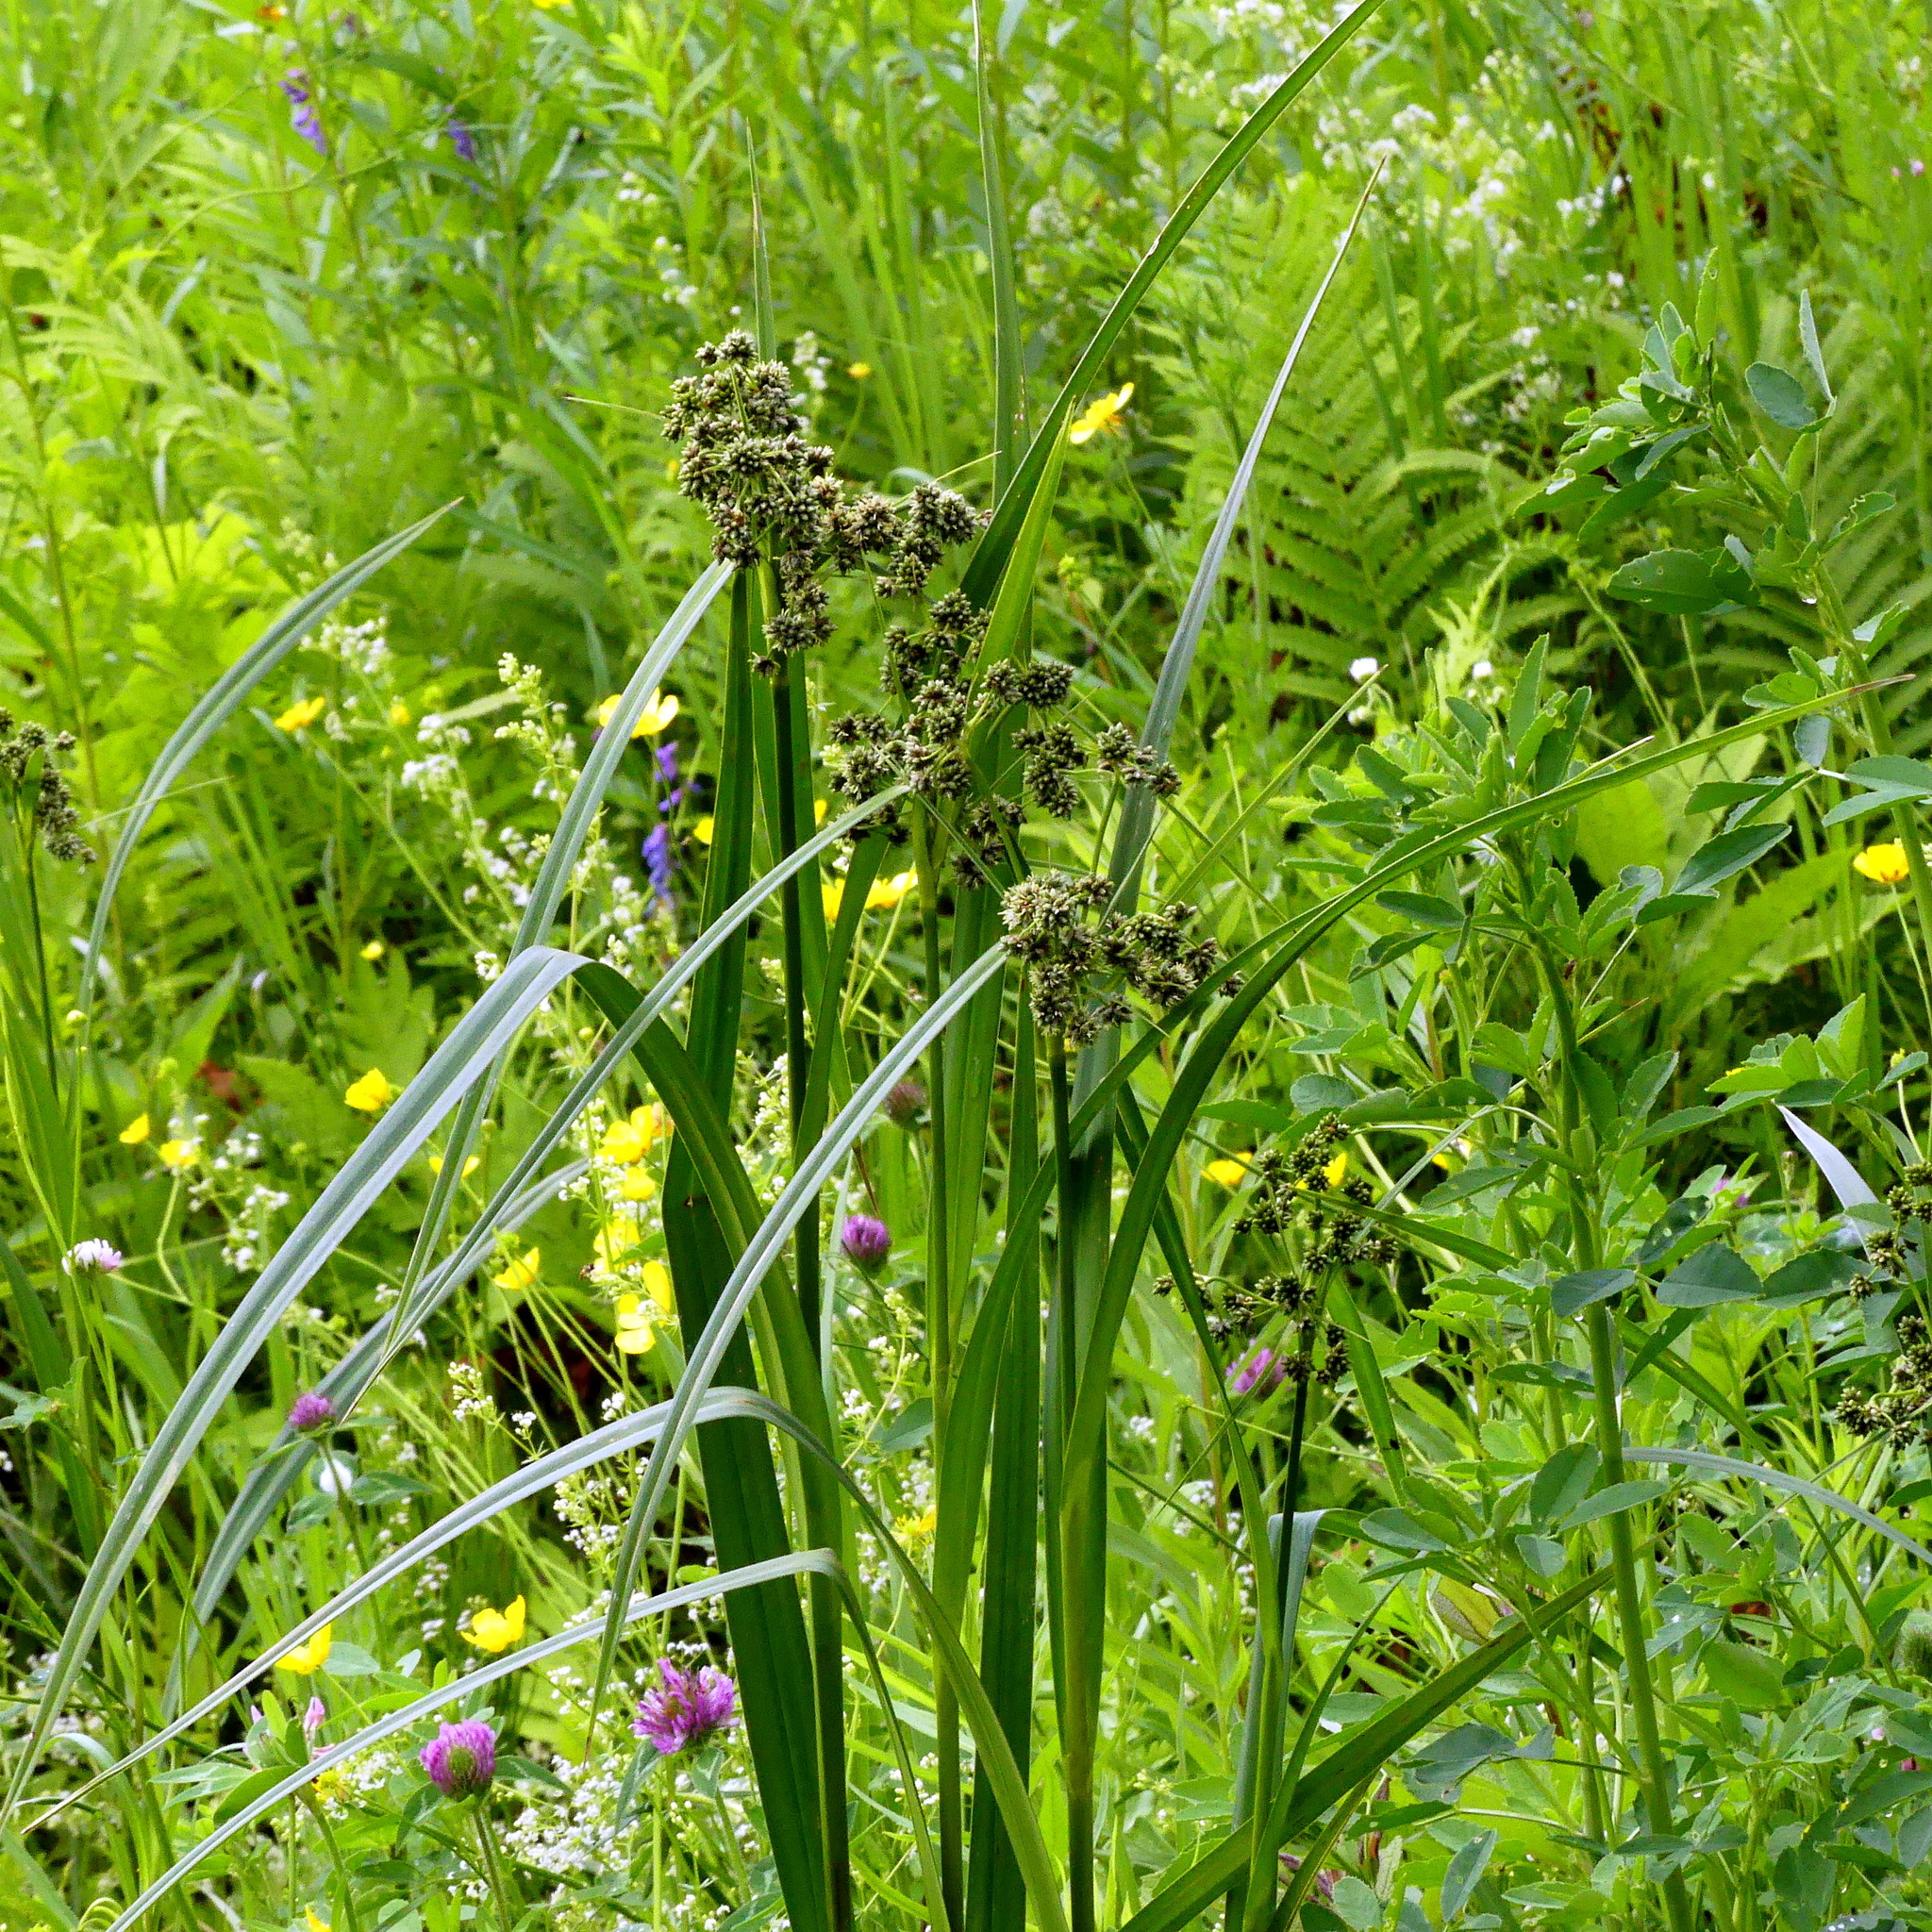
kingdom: Plantae
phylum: Tracheophyta
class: Liliopsida
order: Poales
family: Cyperaceae
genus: Scirpus
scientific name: Scirpus
